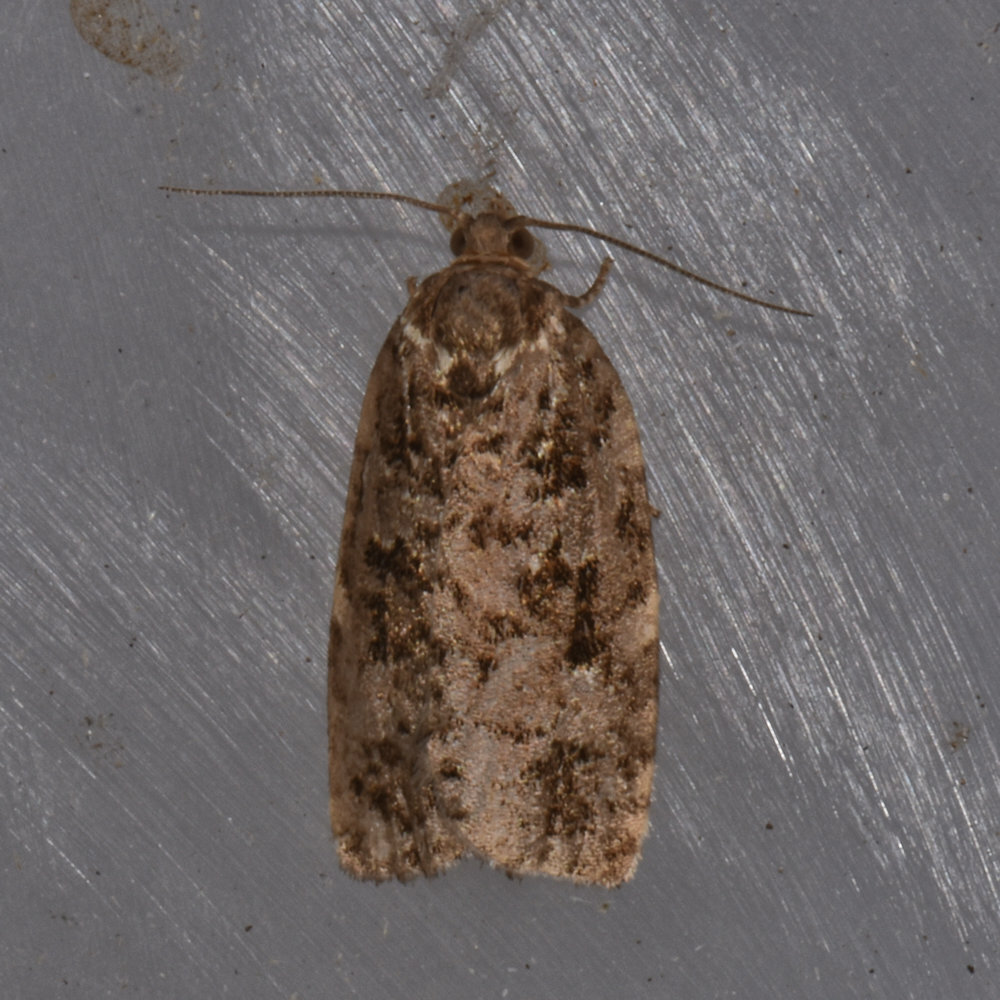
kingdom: Animalia
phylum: Arthropoda
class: Insecta
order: Lepidoptera
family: Tortricidae
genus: Choristoneura
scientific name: Choristoneura fumiferana
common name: Spruce budworm
